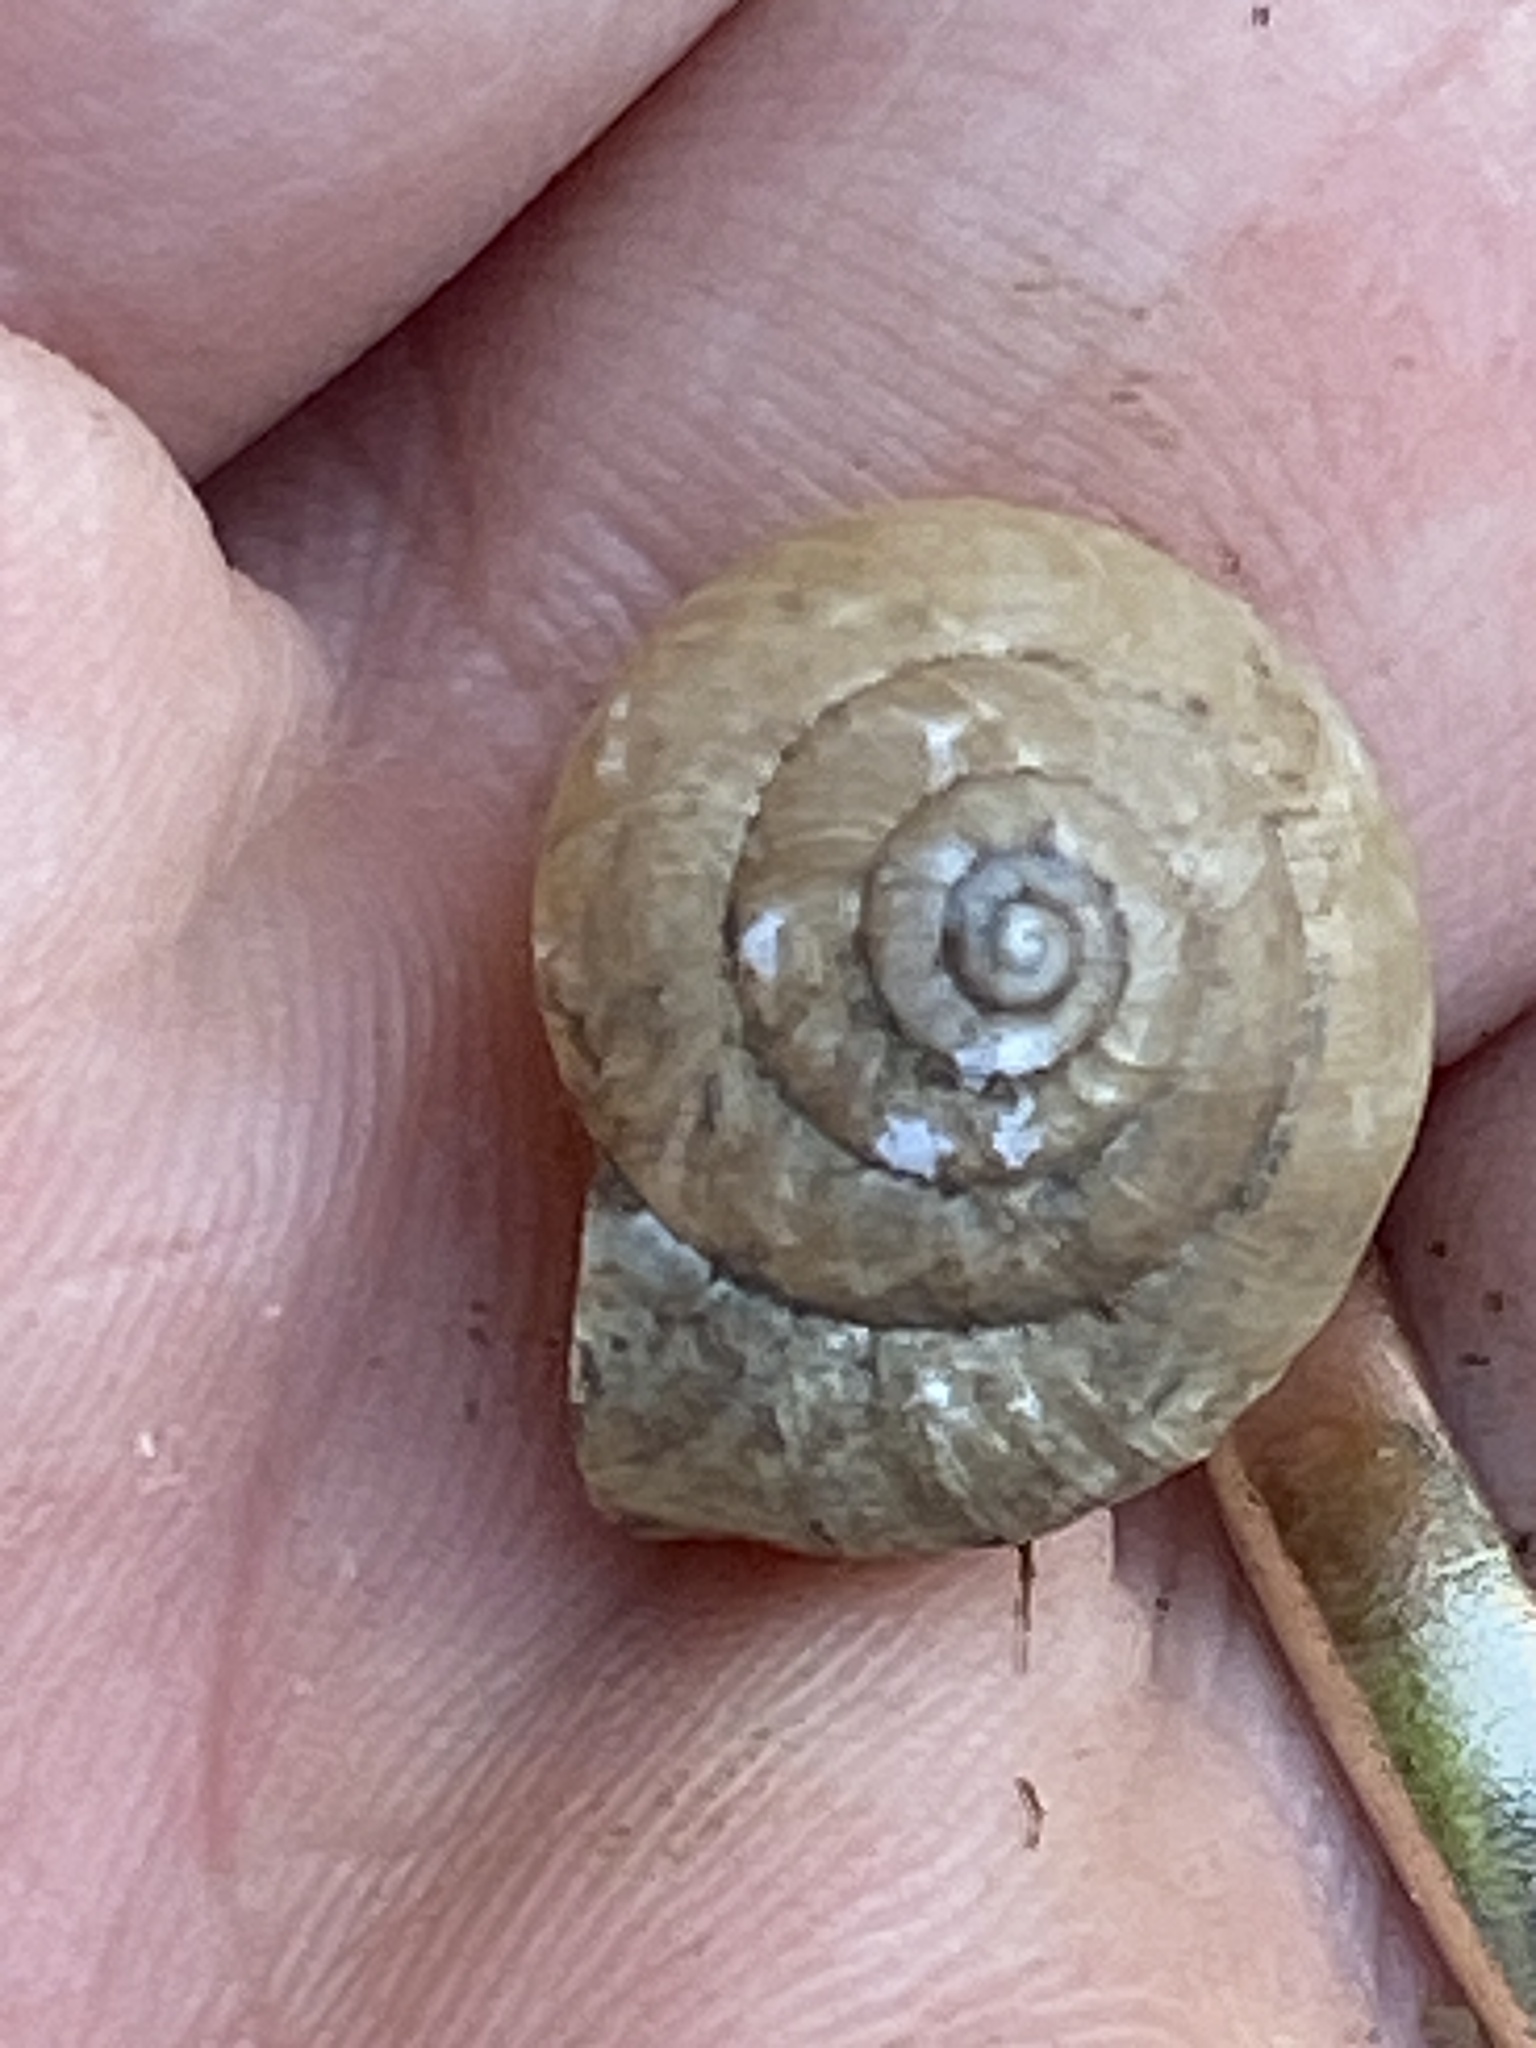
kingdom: Animalia
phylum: Mollusca
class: Gastropoda
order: Stylommatophora
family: Camaenidae
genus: Bradybaena
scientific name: Bradybaena similaris
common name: Asian trampsnail
